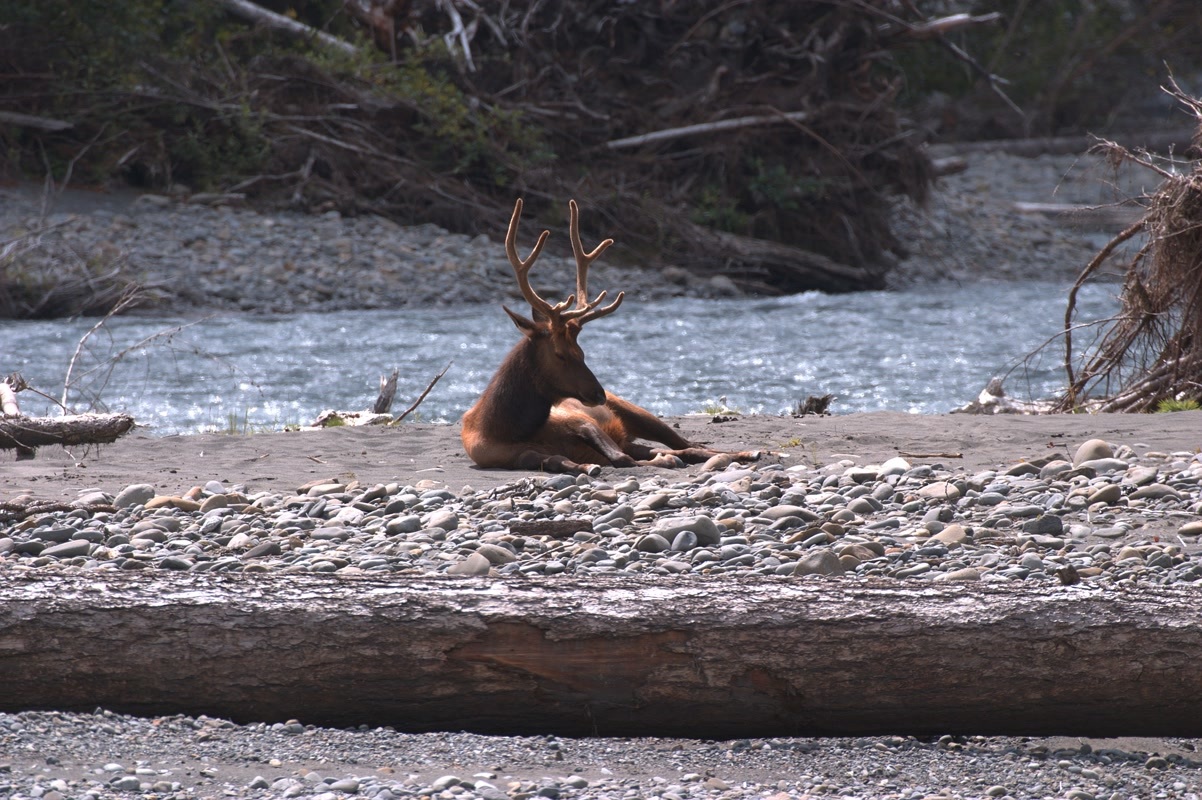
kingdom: Animalia
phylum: Chordata
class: Mammalia
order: Artiodactyla
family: Cervidae
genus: Cervus
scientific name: Cervus elaphus
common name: Red deer
